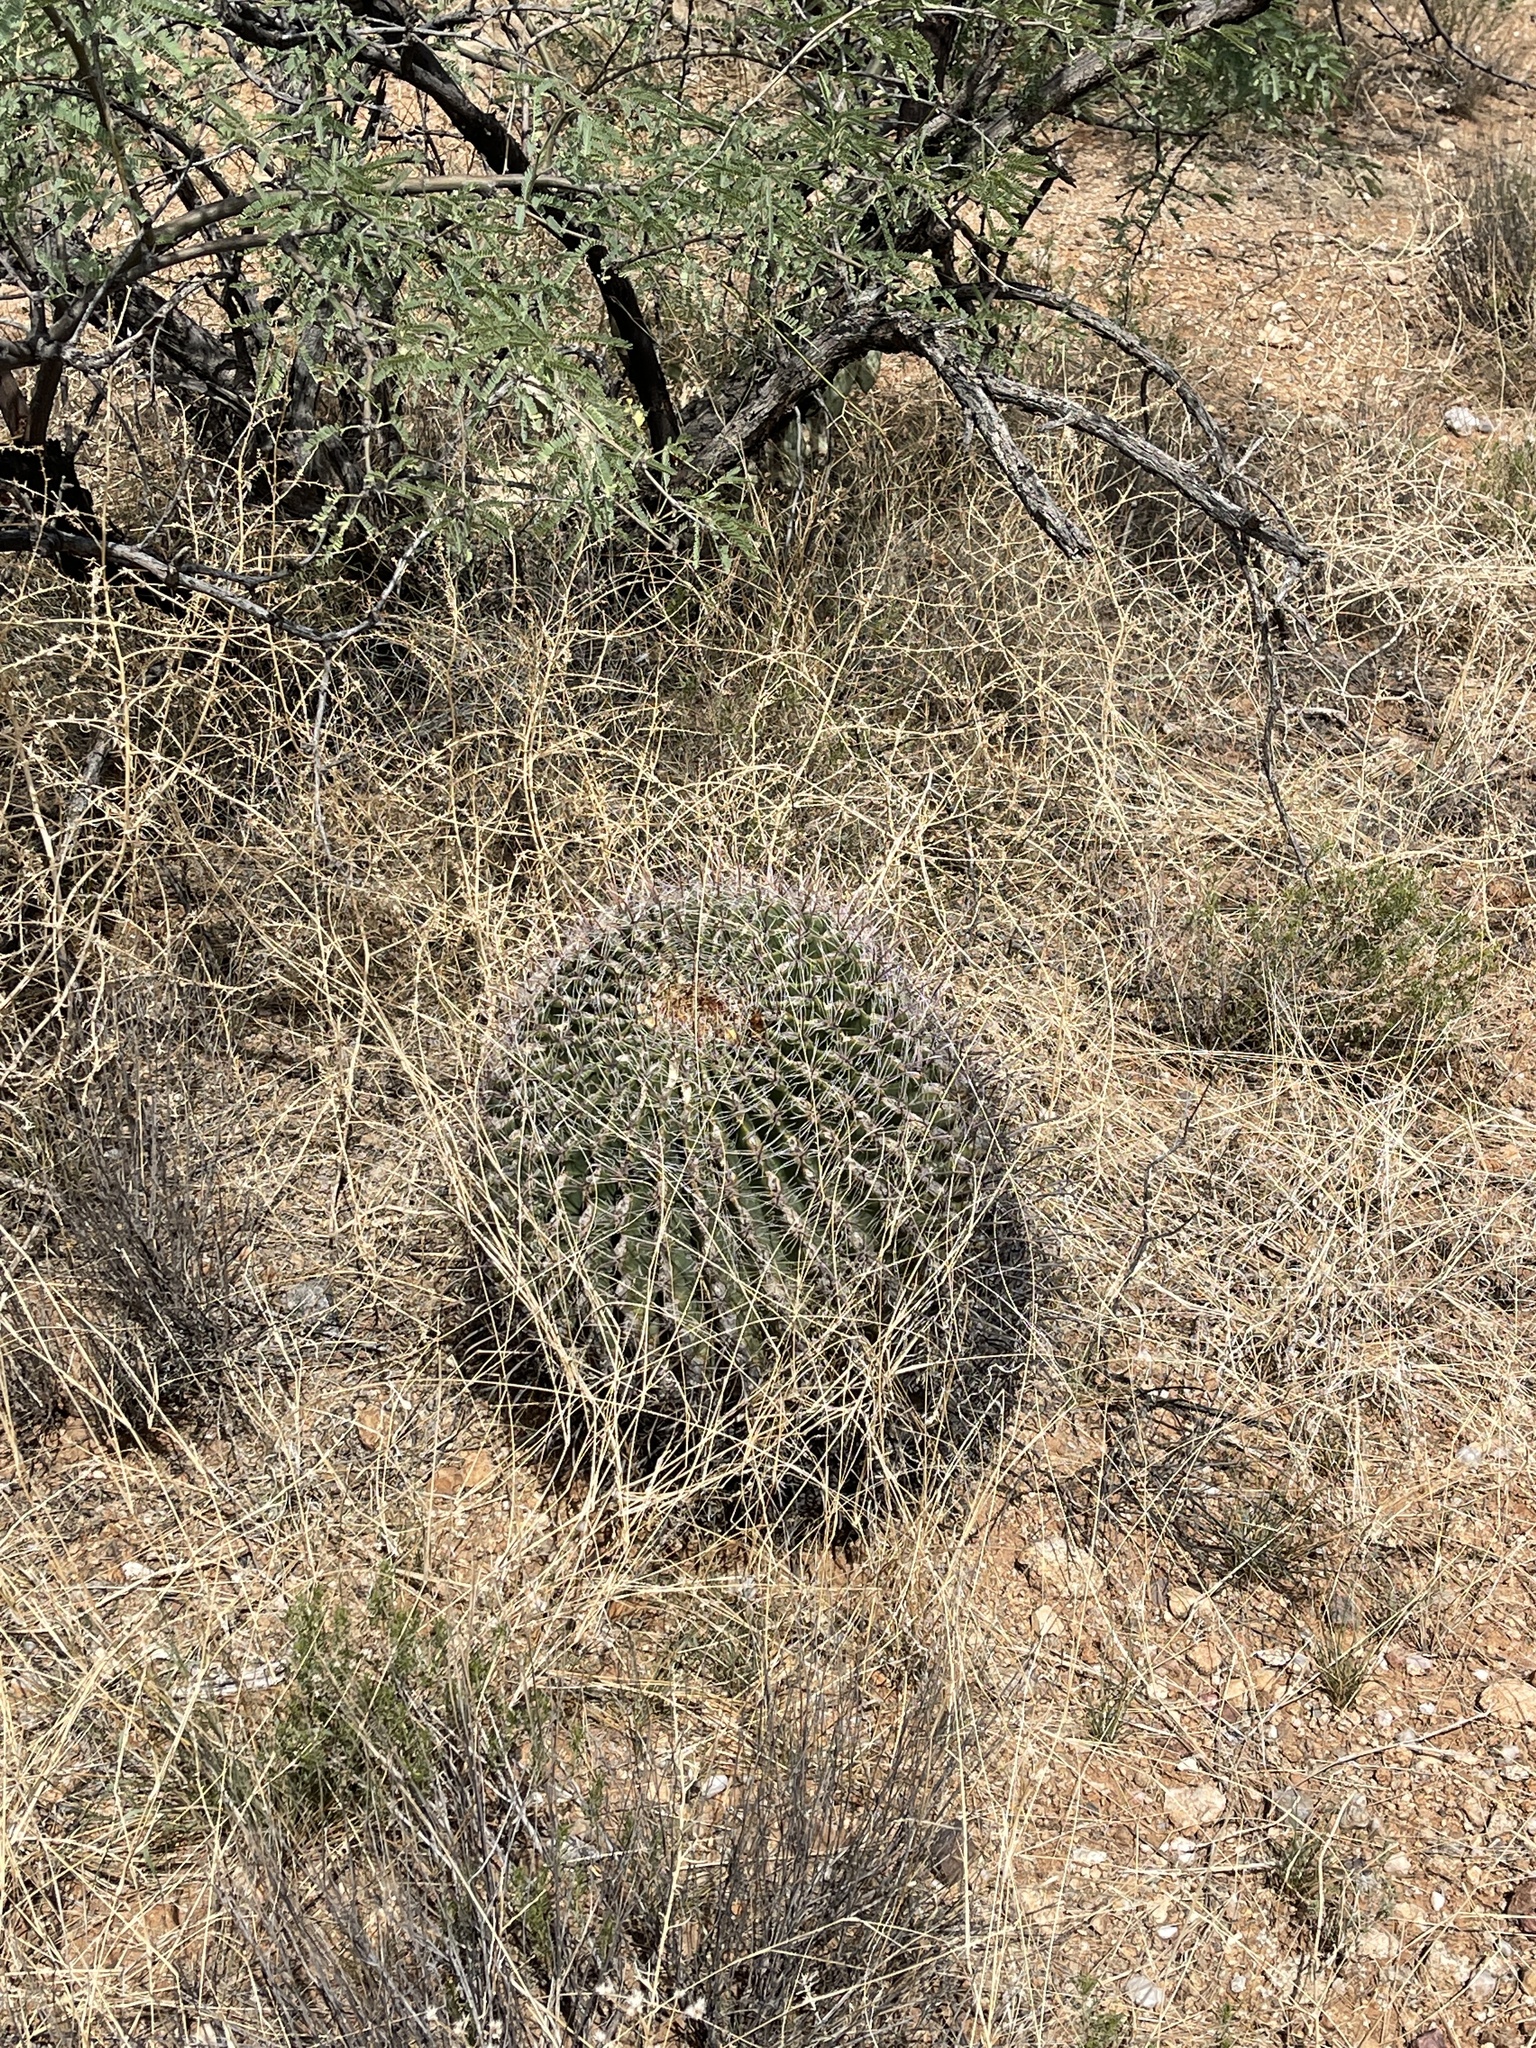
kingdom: Plantae
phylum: Tracheophyta
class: Magnoliopsida
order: Caryophyllales
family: Cactaceae
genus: Ferocactus
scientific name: Ferocactus wislizeni
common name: Candy barrel cactus
